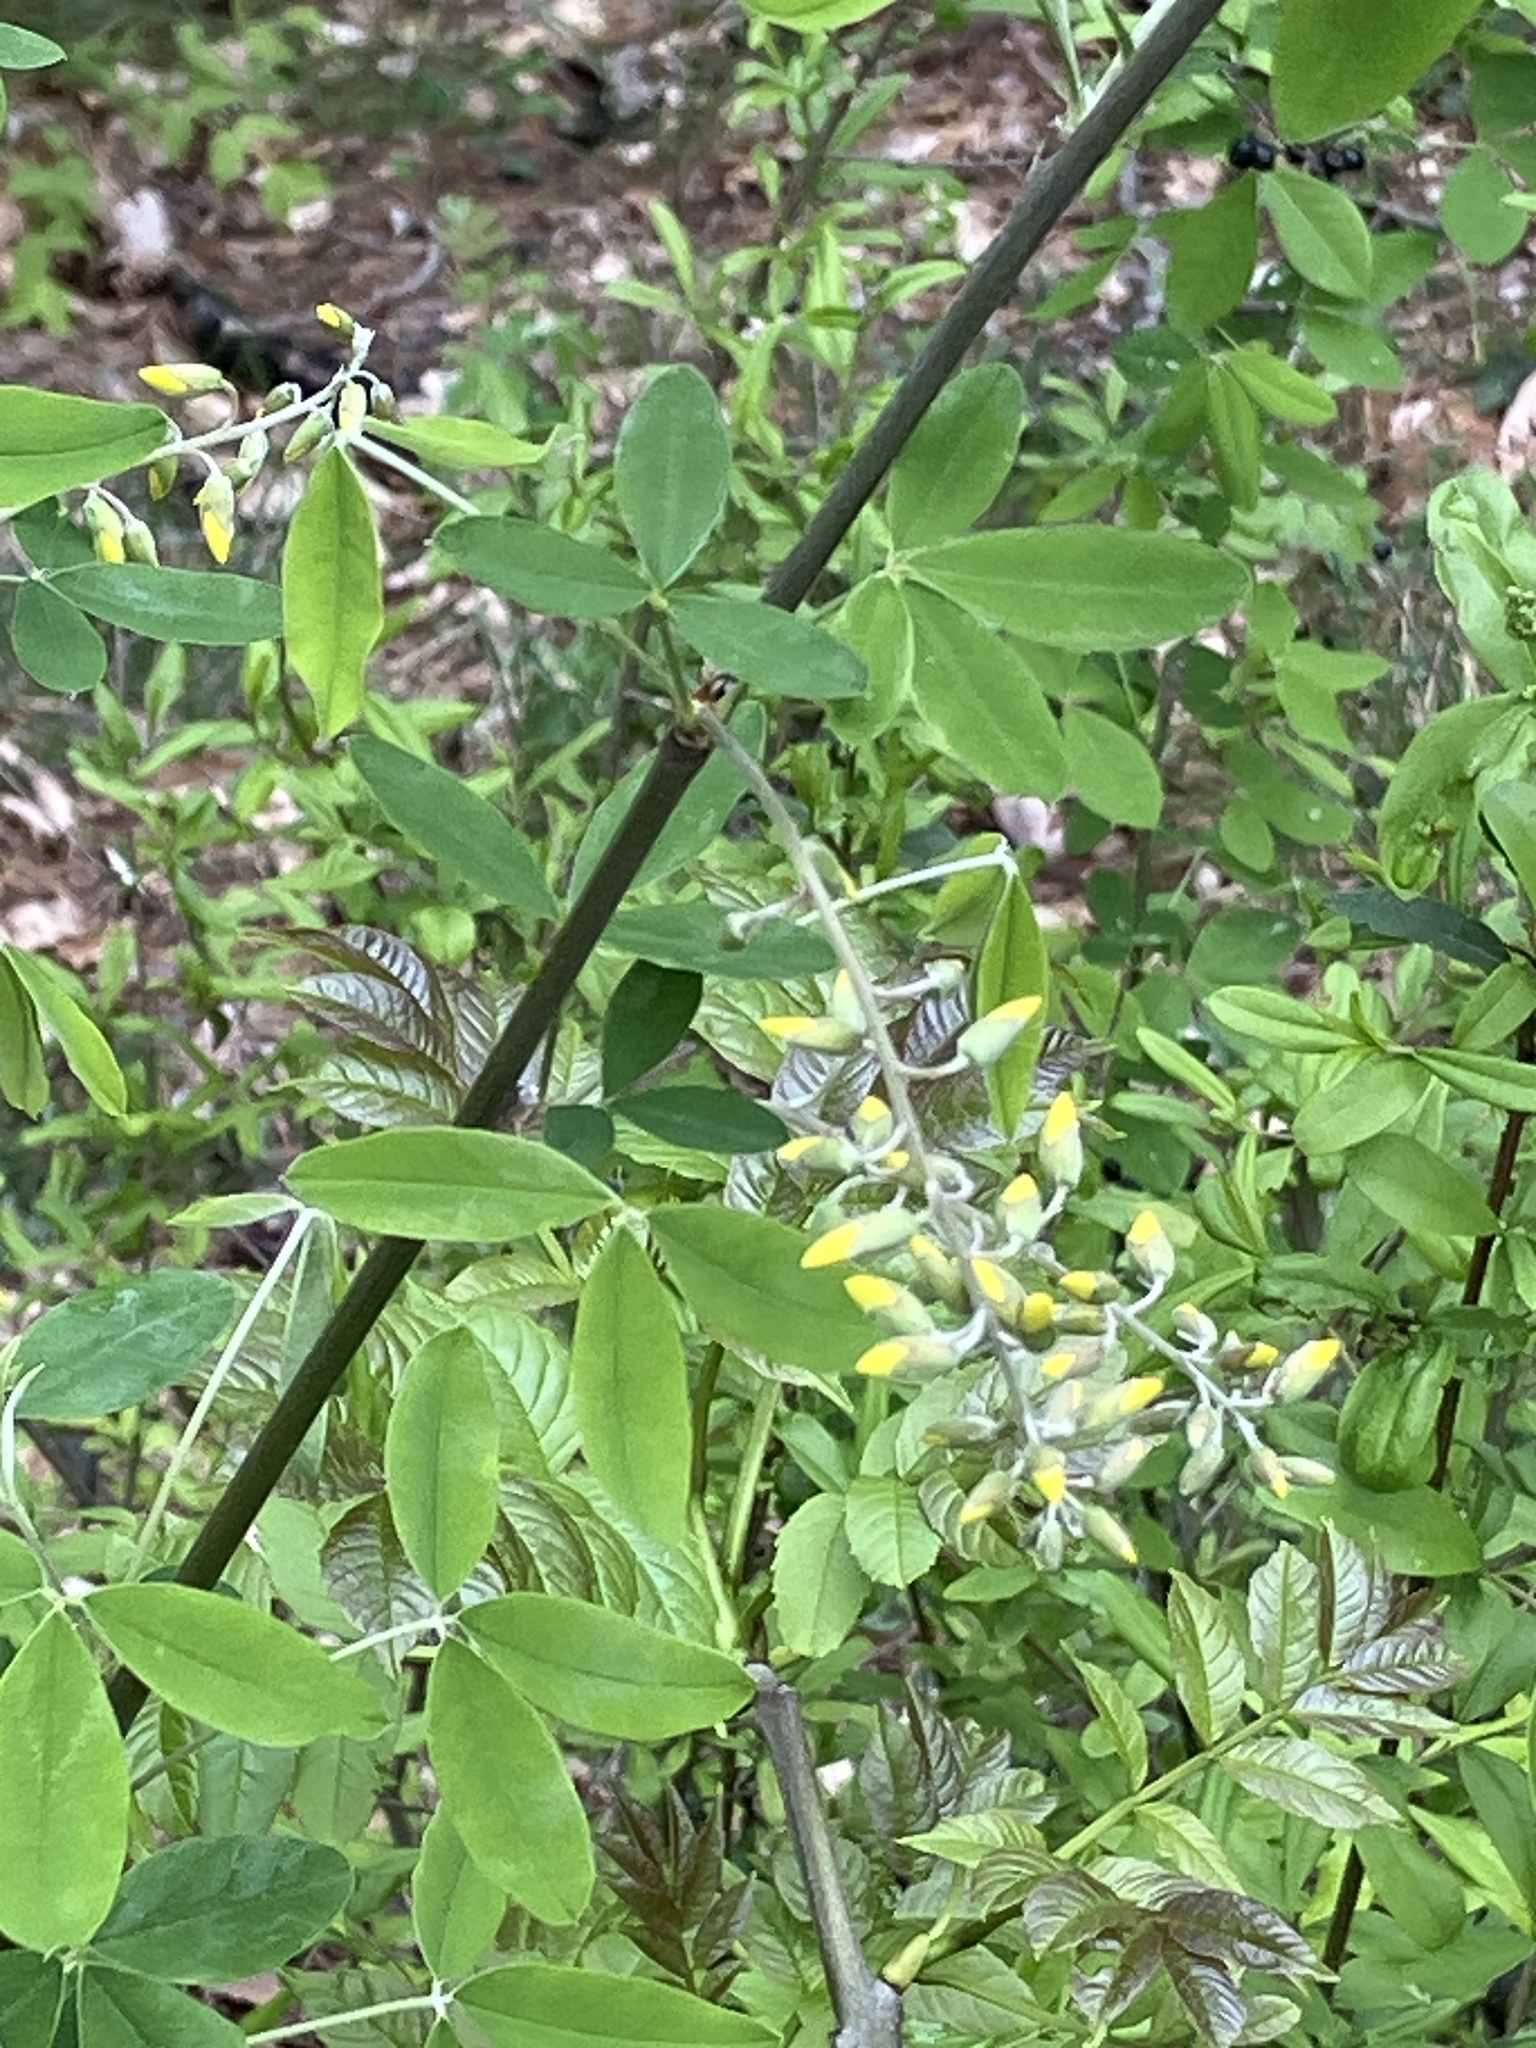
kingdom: Plantae
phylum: Tracheophyta
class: Magnoliopsida
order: Fabales
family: Fabaceae
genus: Laburnum
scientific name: Laburnum anagyroides
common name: Laburnum
